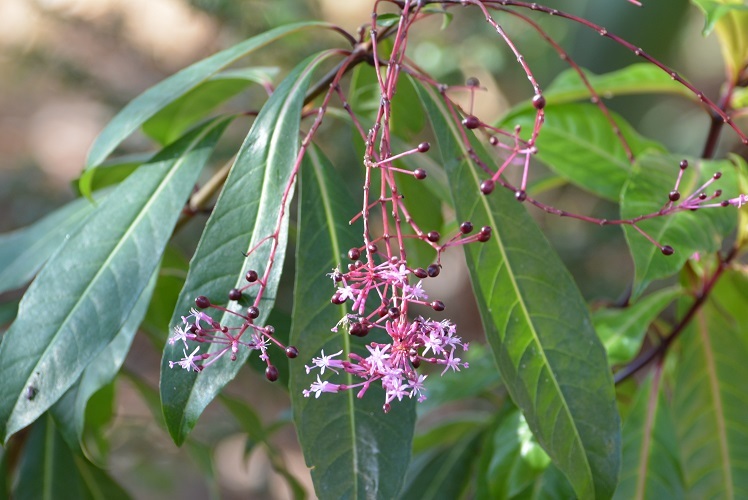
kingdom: Plantae
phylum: Tracheophyta
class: Magnoliopsida
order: Myrtales
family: Onagraceae
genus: Fuchsia
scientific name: Fuchsia paniculata
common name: Shrubby fuchsia
